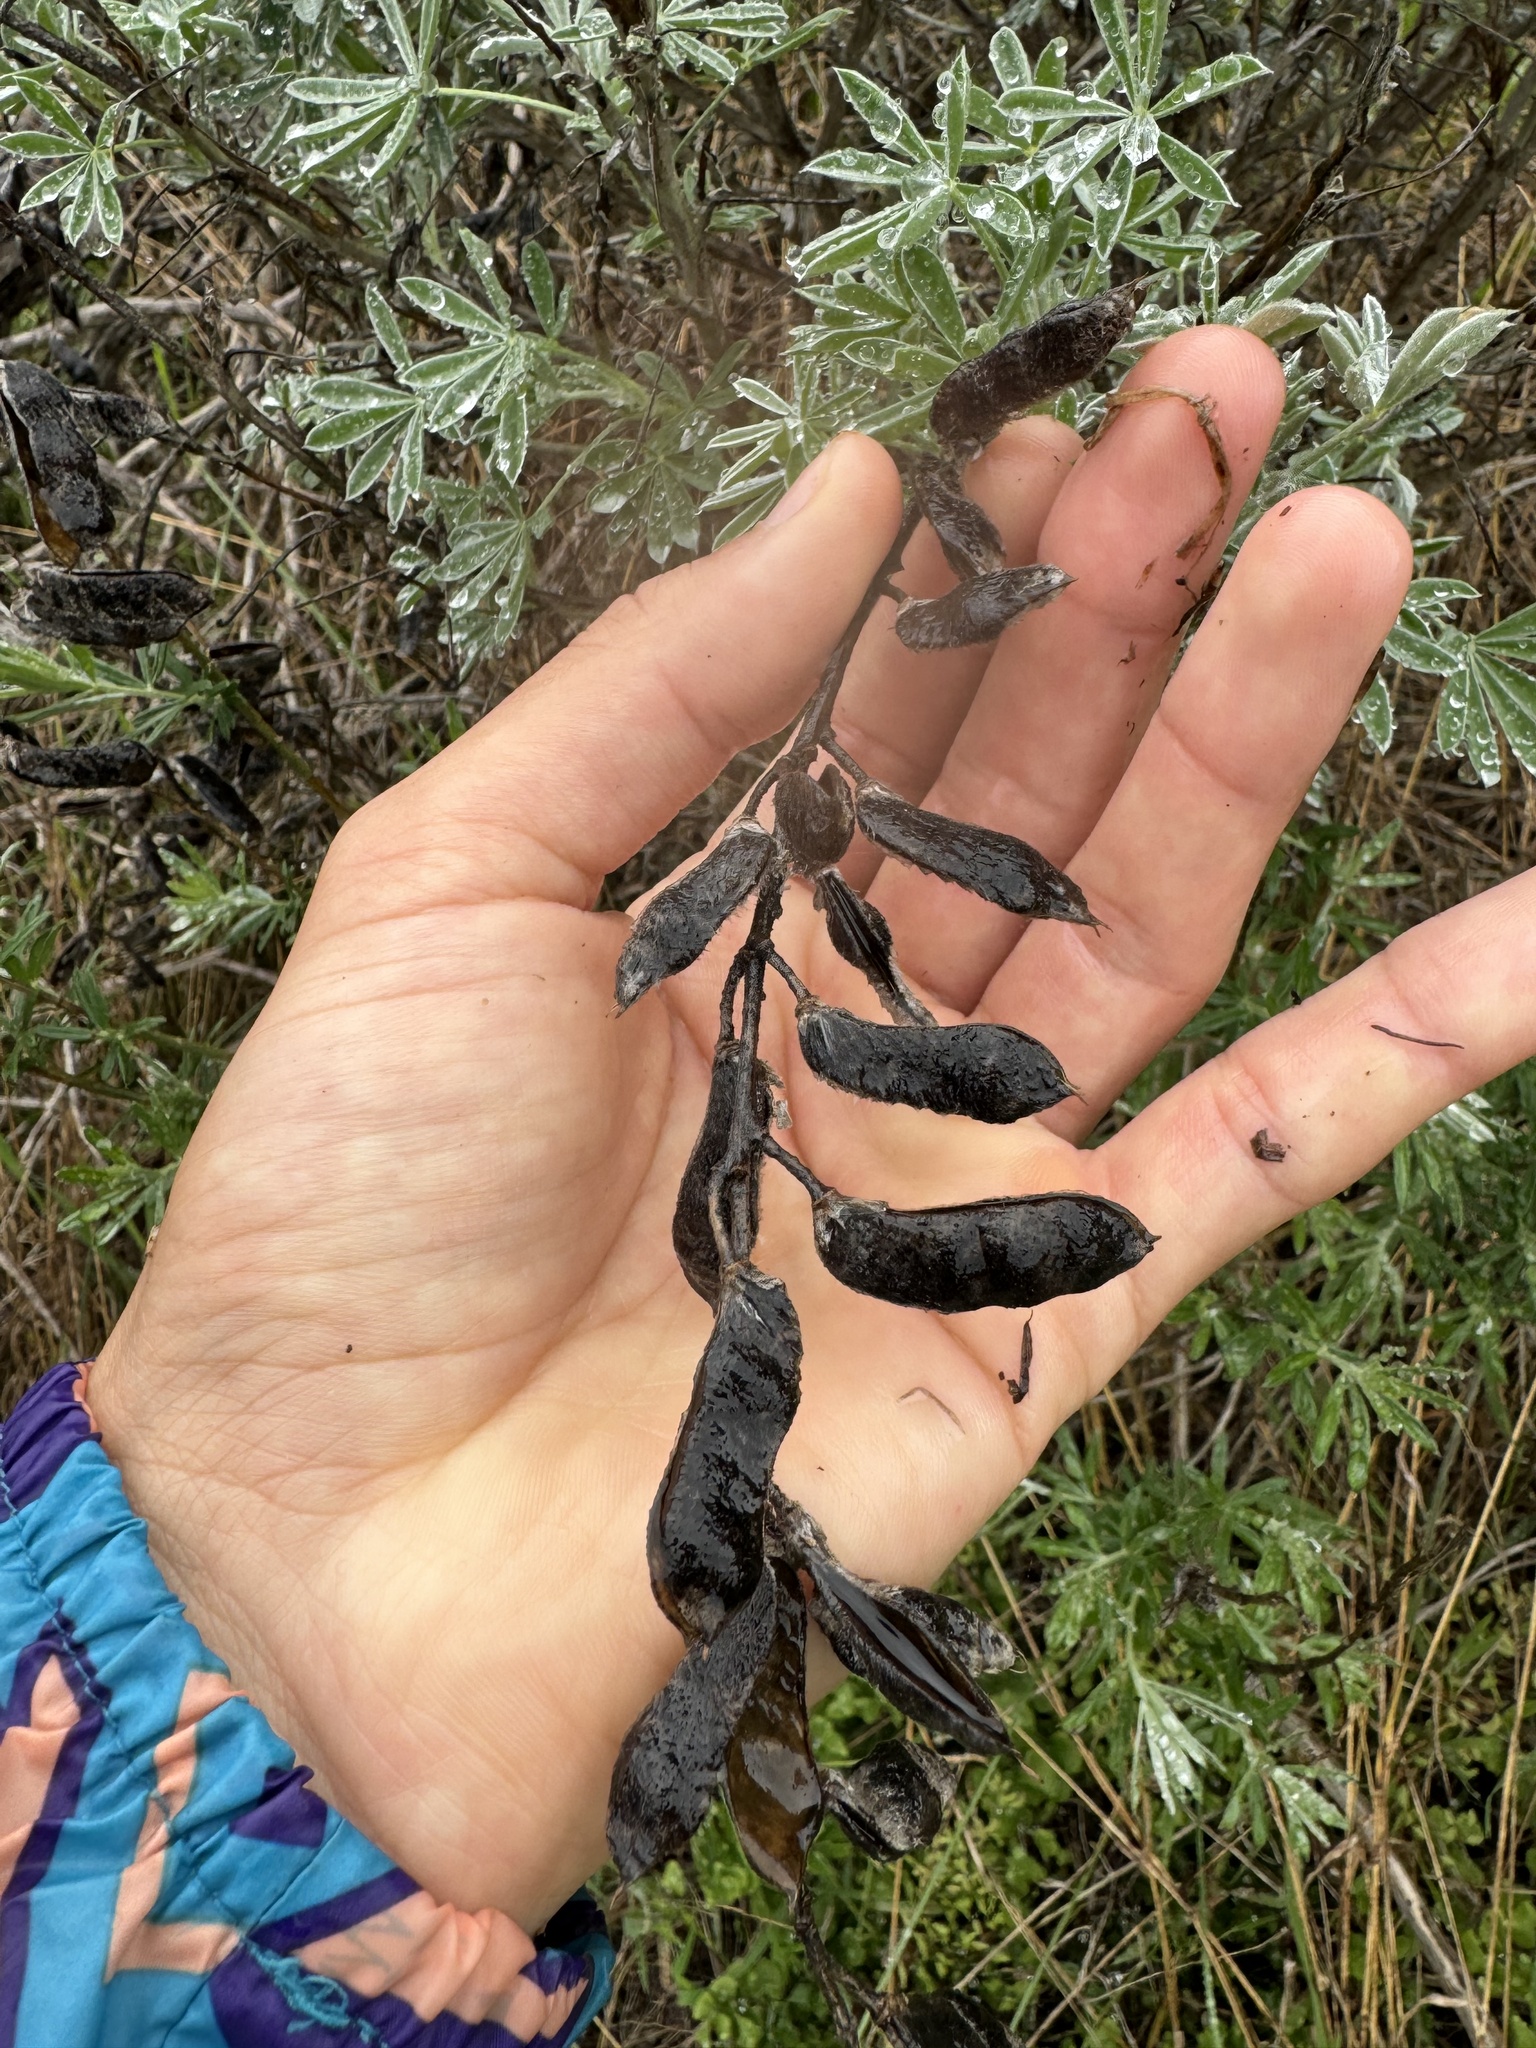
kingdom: Plantae
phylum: Tracheophyta
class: Magnoliopsida
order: Fabales
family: Fabaceae
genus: Lupinus
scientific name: Lupinus albifrons
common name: Foothill lupine
